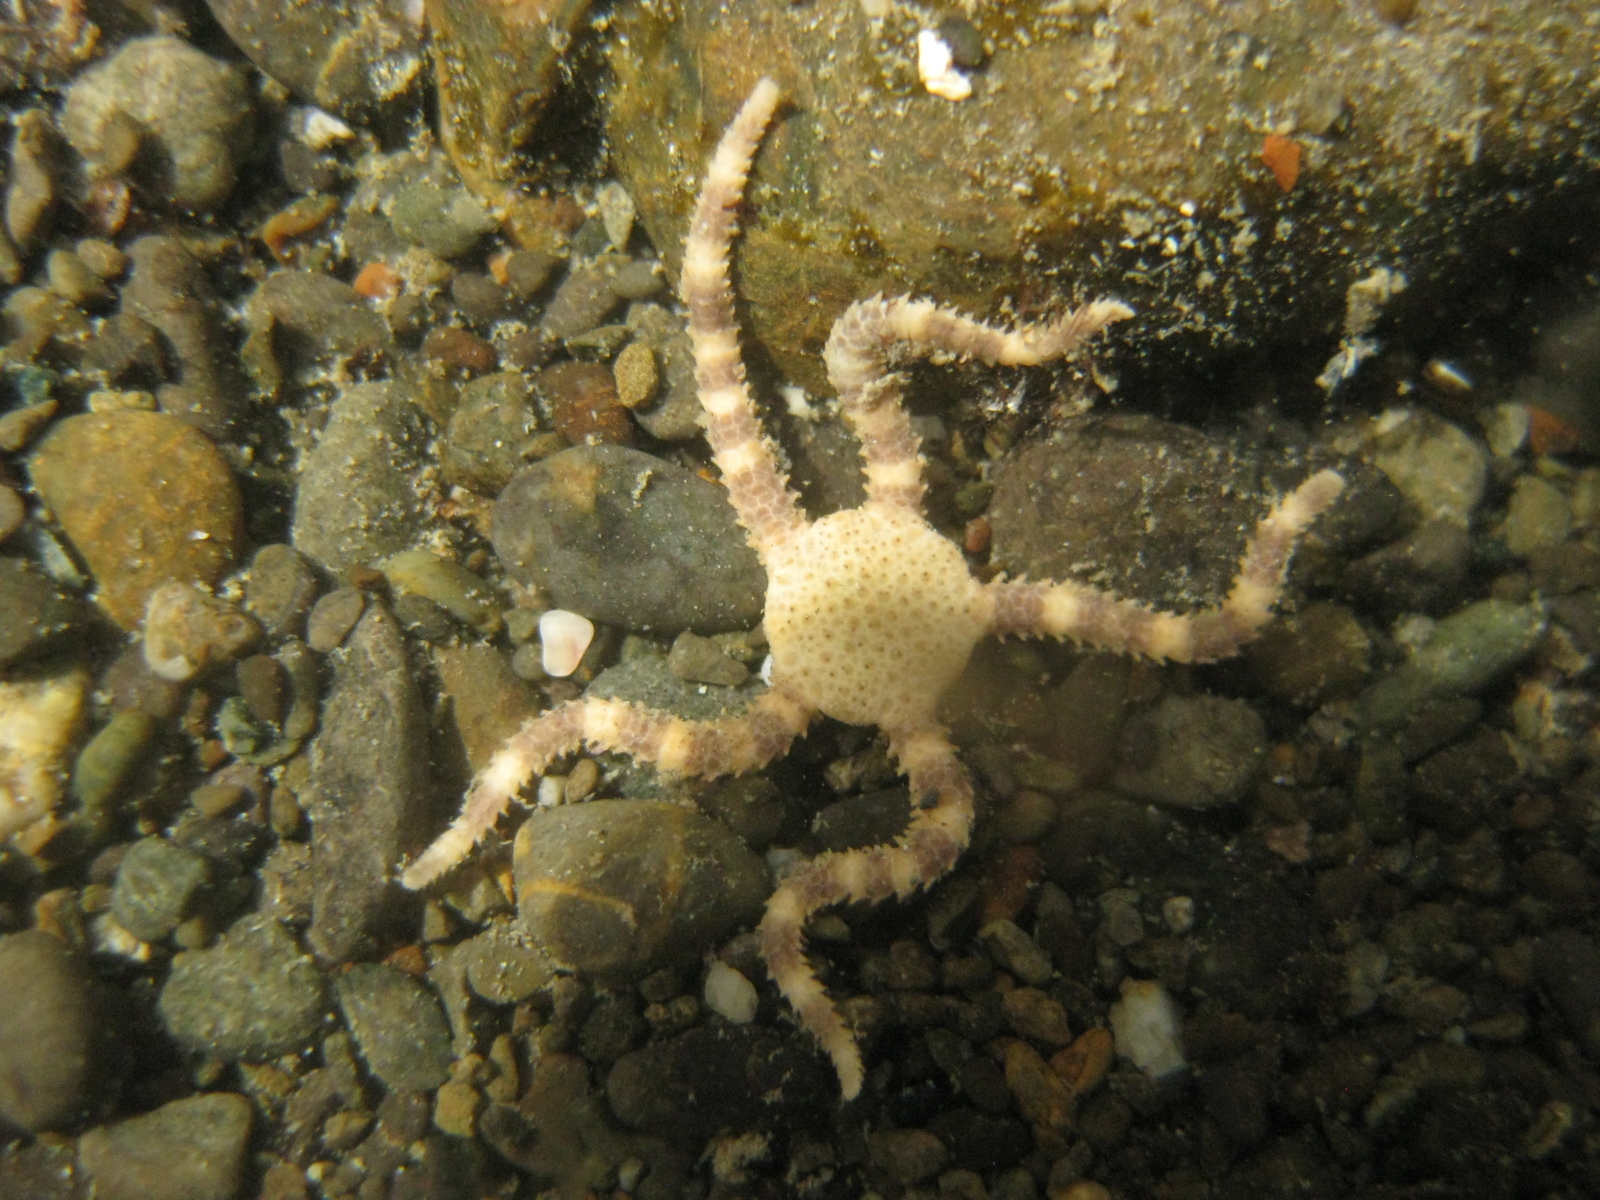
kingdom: Animalia
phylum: Echinodermata
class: Ophiuroidea
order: Amphilepidida
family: Hemieuryalidae
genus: Ophioplocus
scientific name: Ophioplocus huttoni
